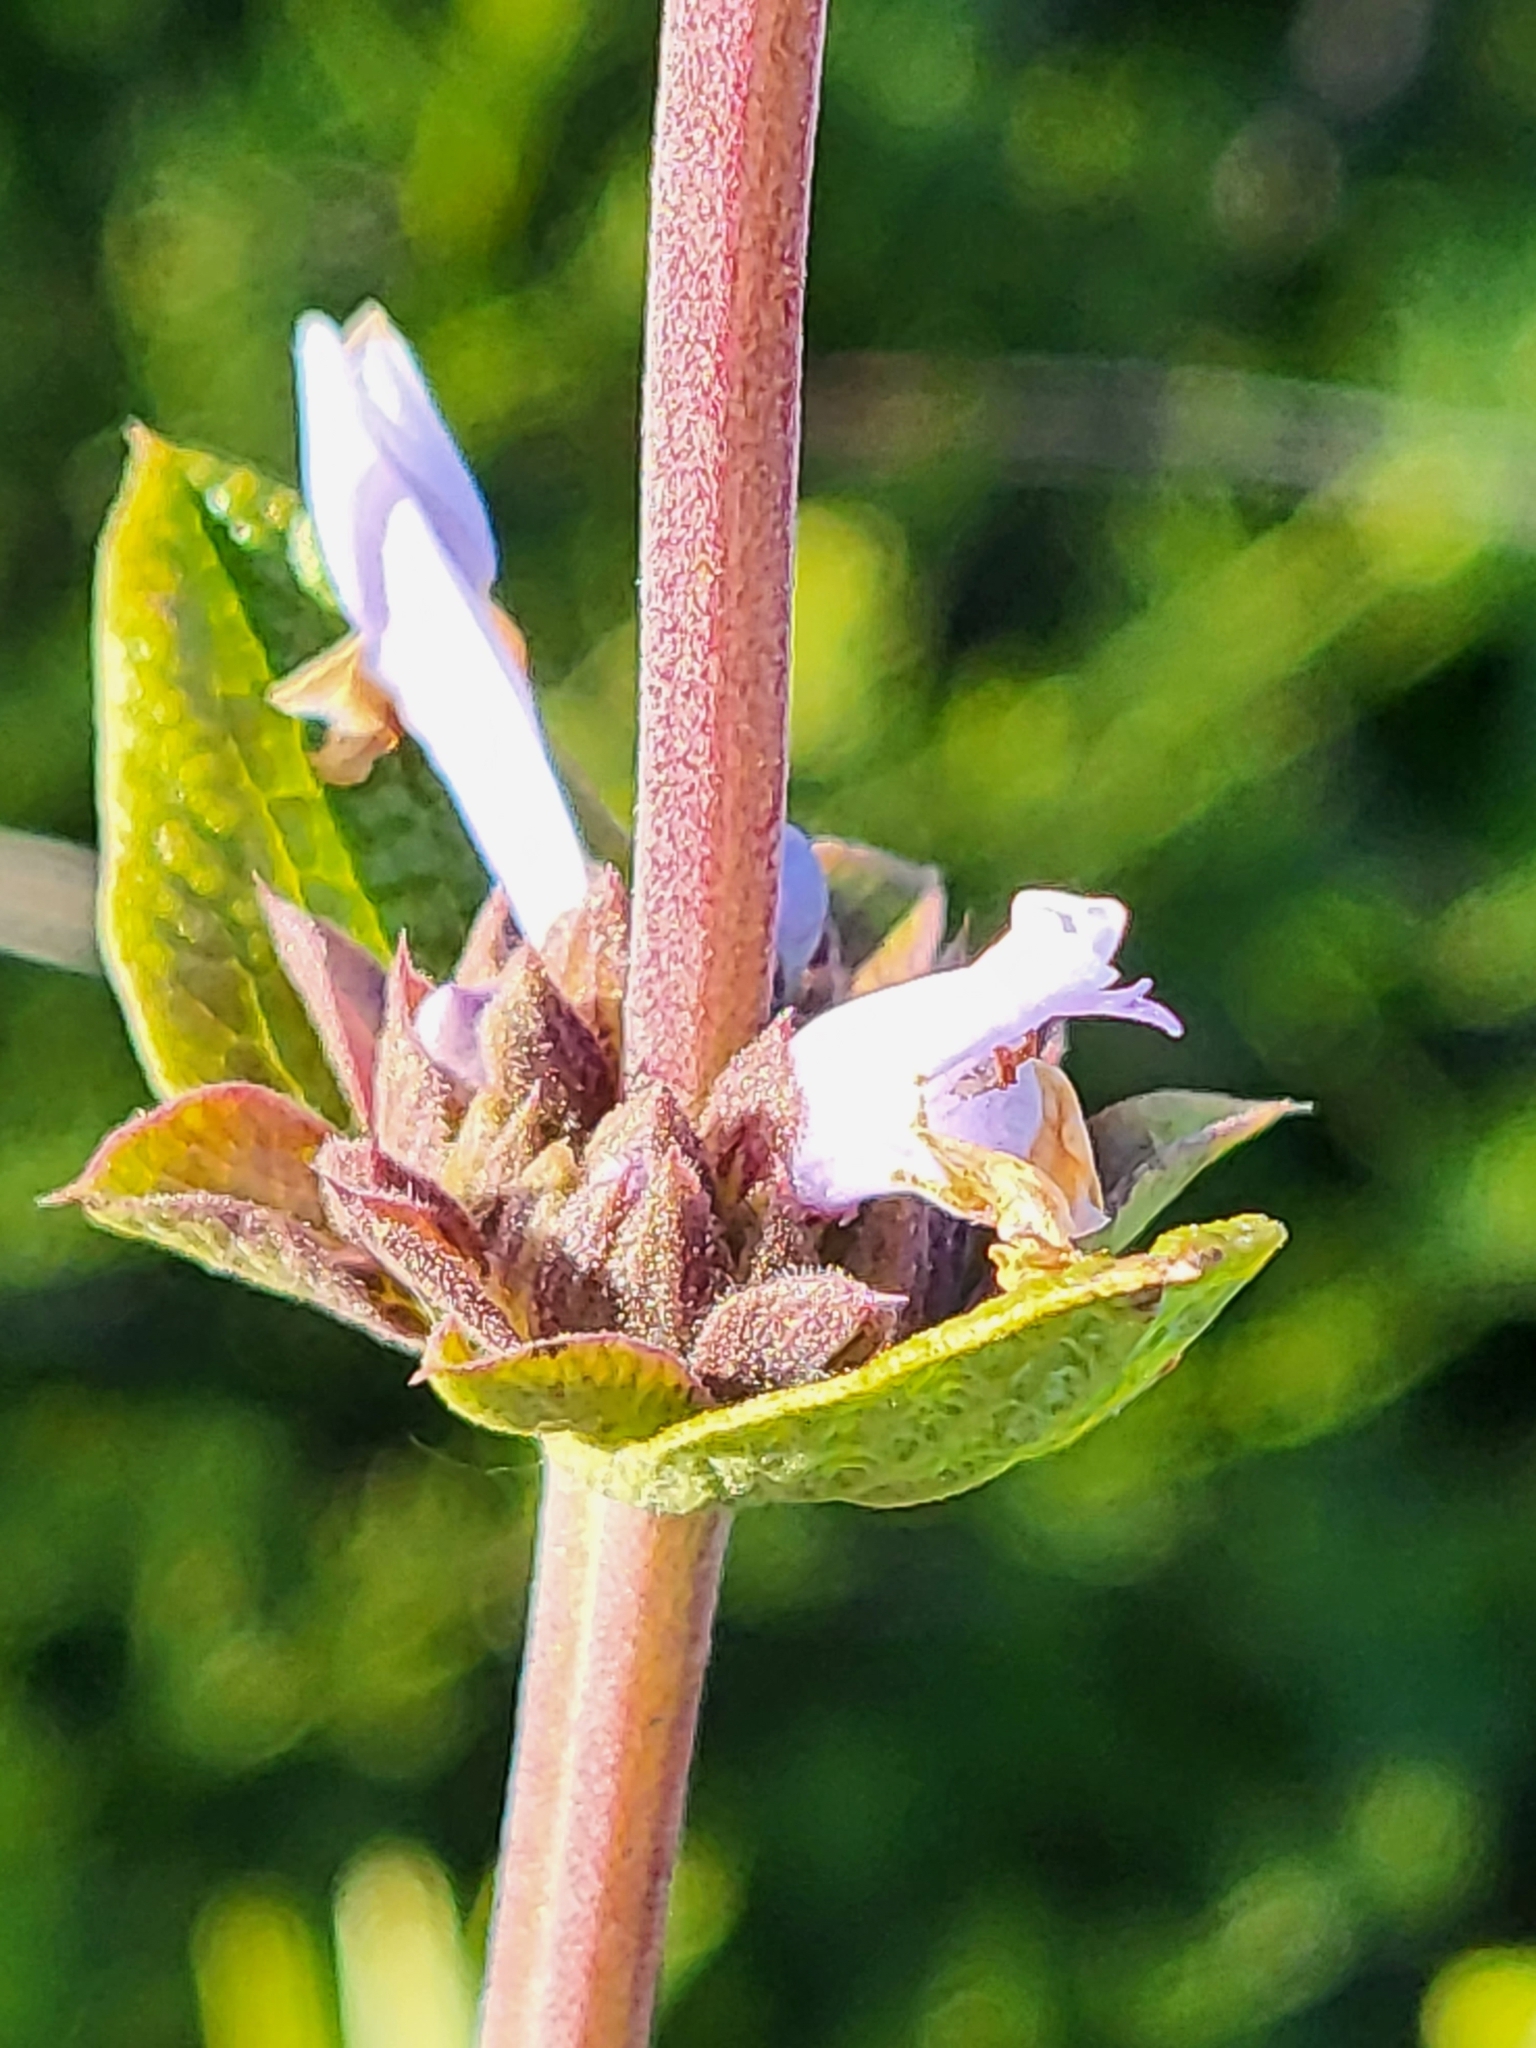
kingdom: Plantae
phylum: Tracheophyta
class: Magnoliopsida
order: Lamiales
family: Lamiaceae
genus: Salvia
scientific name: Salvia mellifera
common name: Black sage
